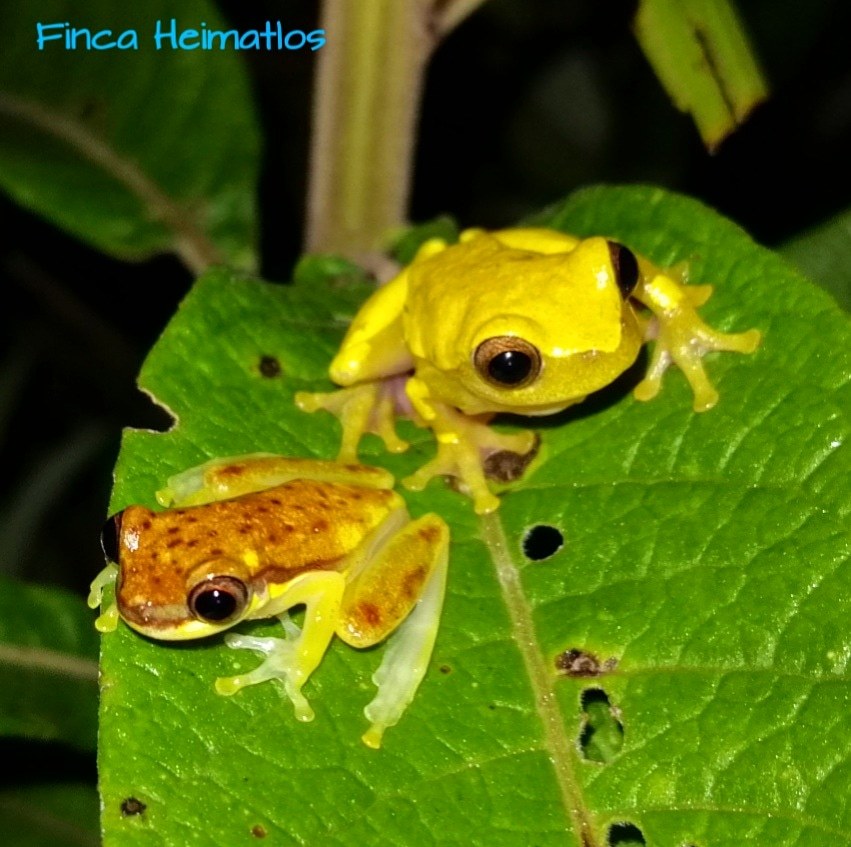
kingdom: Animalia
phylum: Chordata
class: Amphibia
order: Anura
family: Hylidae
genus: Dendropsophus
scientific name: Dendropsophus rhodopeplus
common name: Red-skirted treefrog
